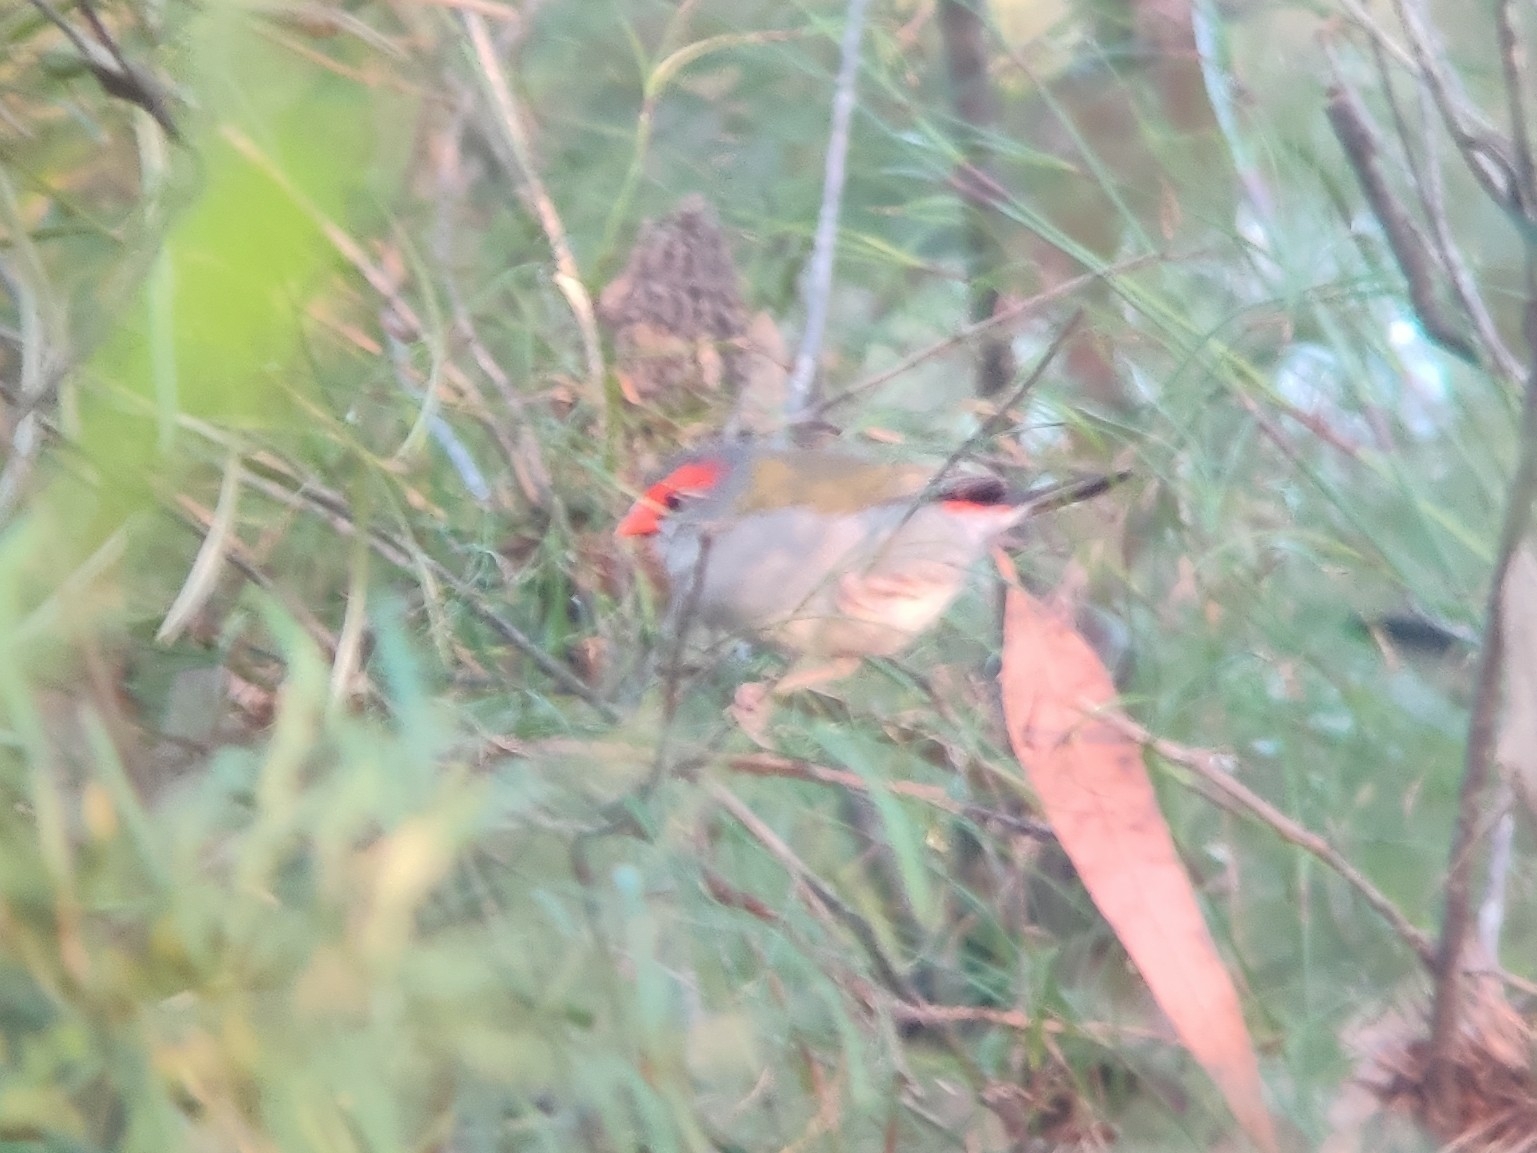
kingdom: Animalia
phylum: Chordata
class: Aves
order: Passeriformes
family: Estrildidae
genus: Neochmia
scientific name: Neochmia temporalis
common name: Red-browed finch
